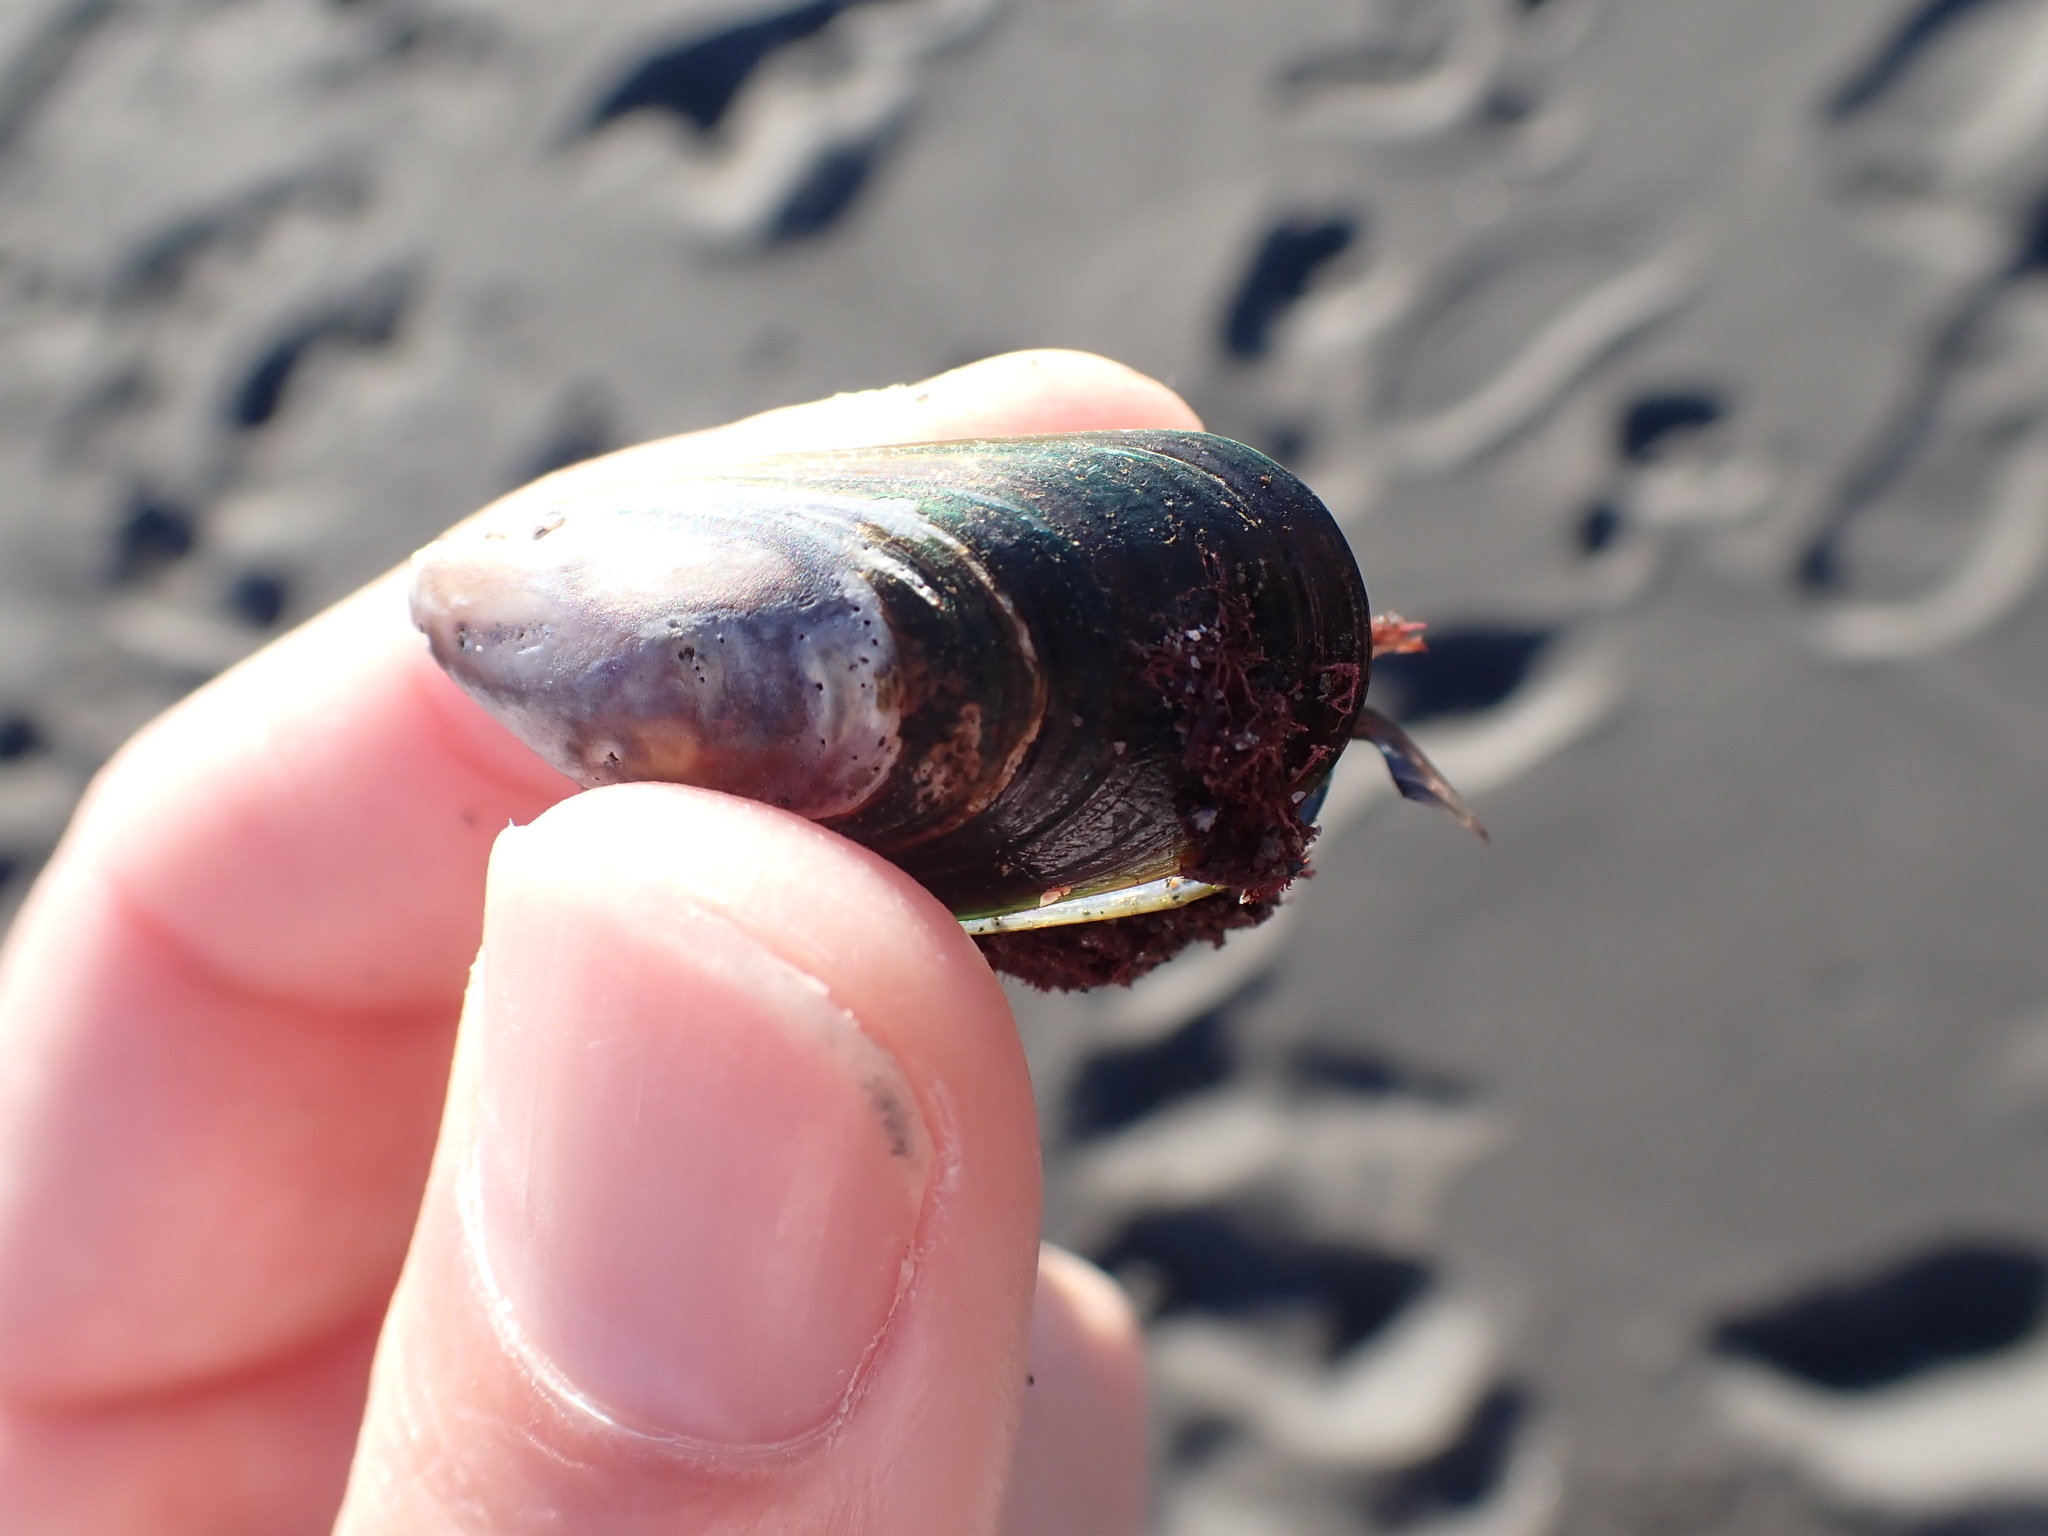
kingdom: Animalia
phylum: Mollusca
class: Bivalvia
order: Mytilida
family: Mytilidae
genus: Perna
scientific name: Perna canaliculus
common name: New zealand greenshelltm
